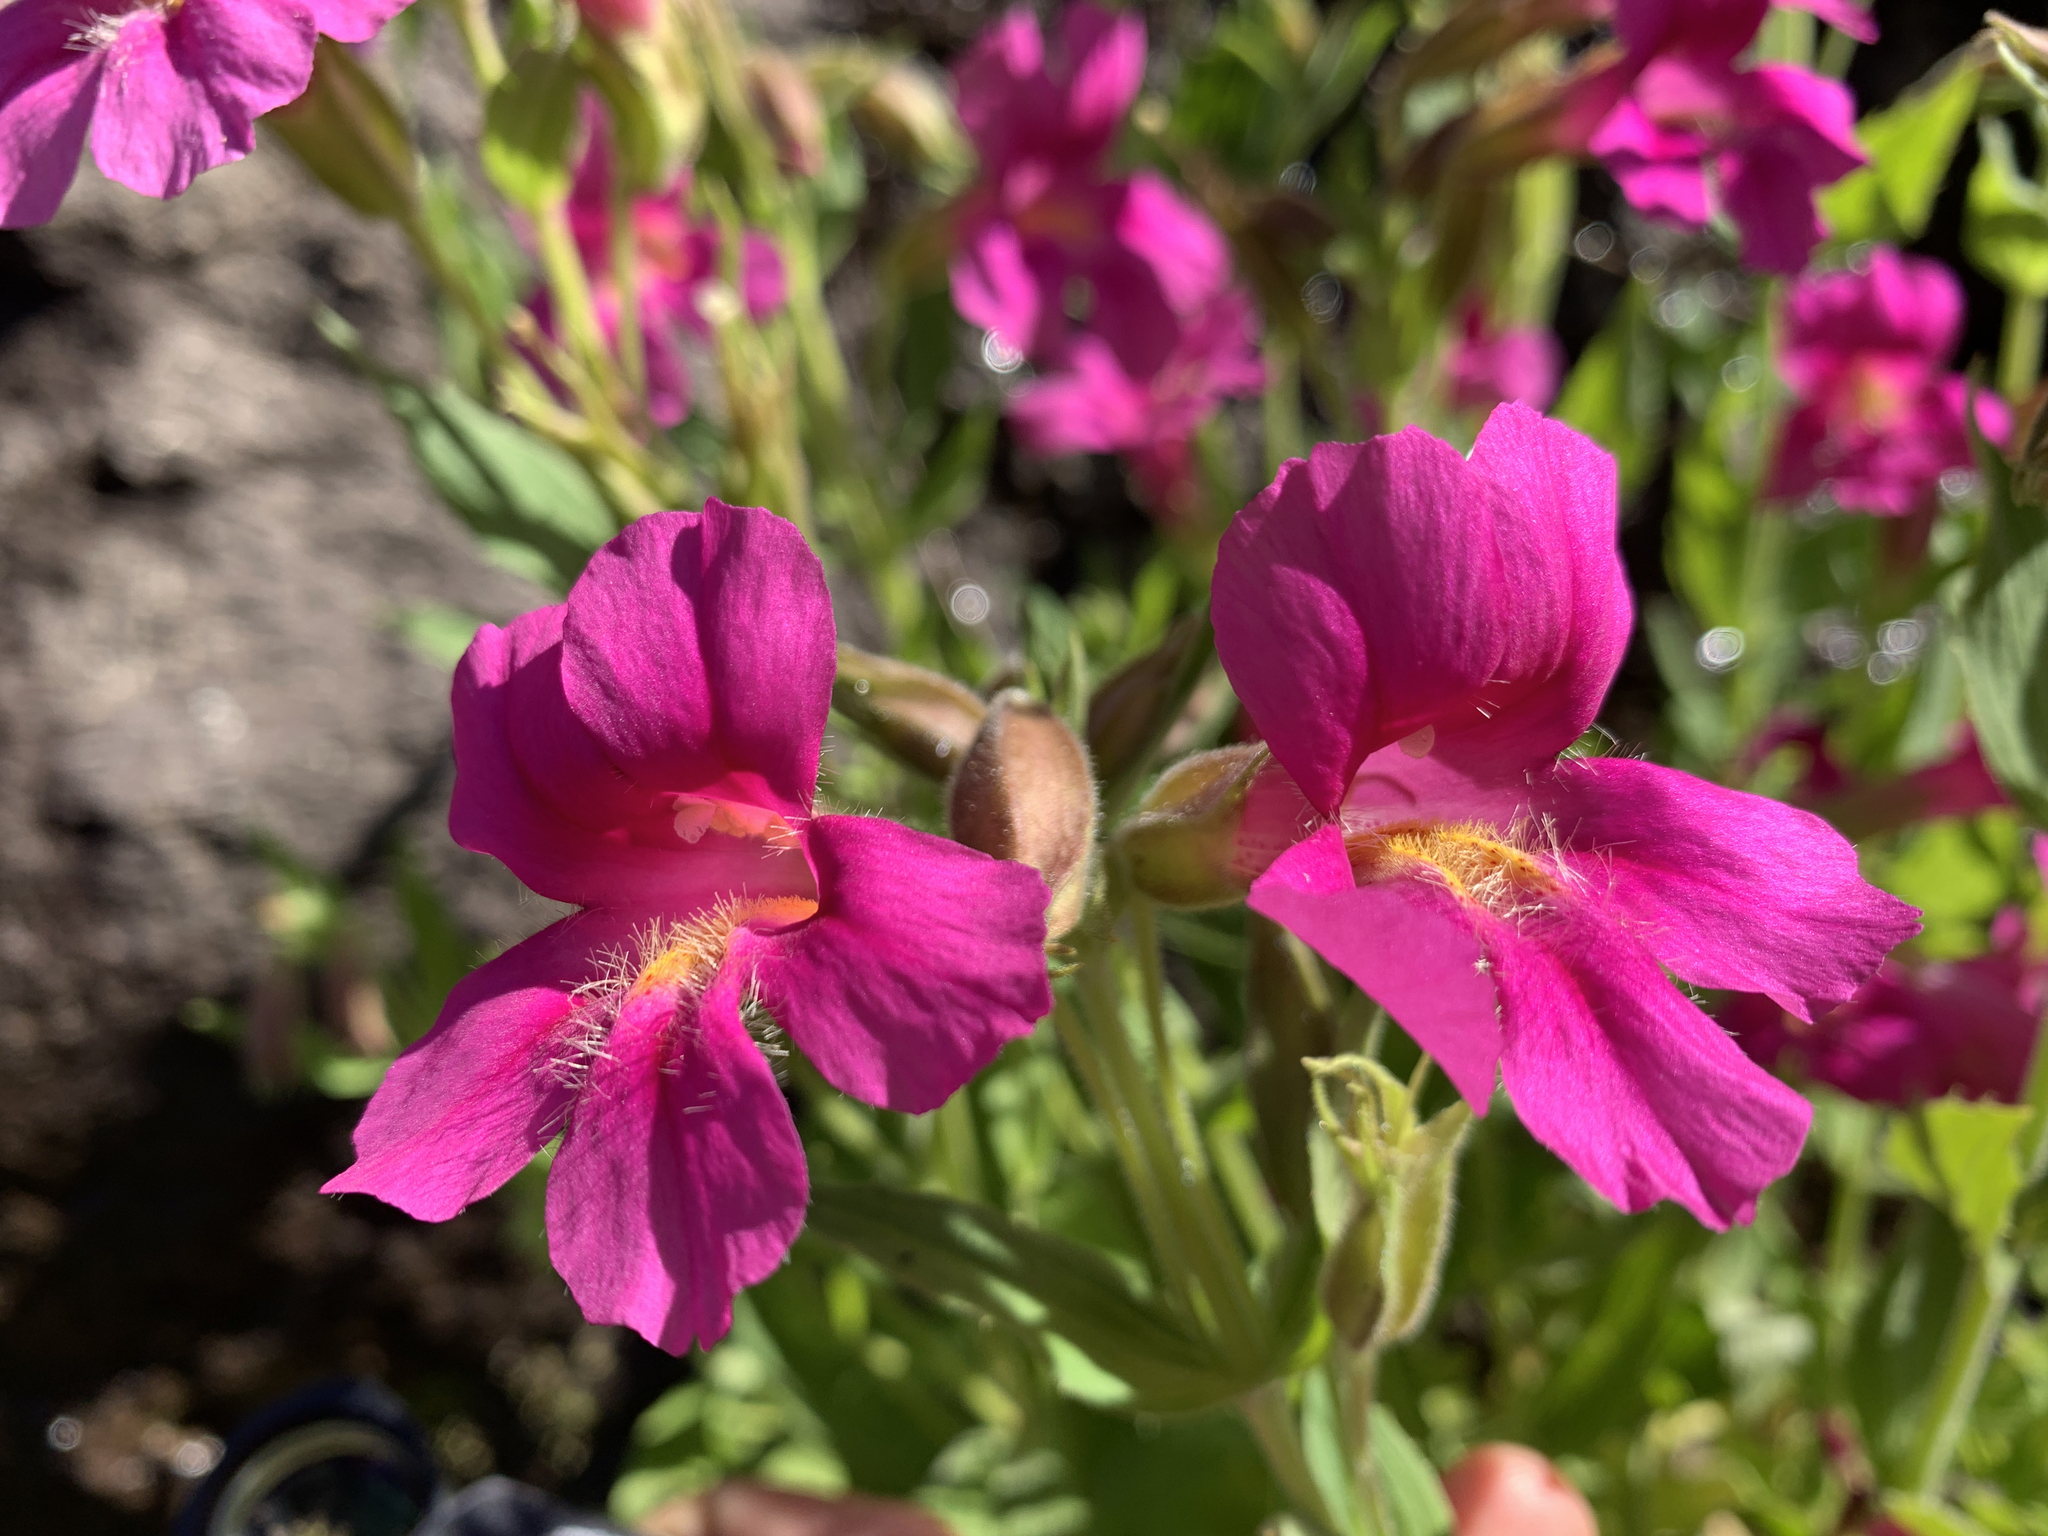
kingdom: Plantae
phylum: Tracheophyta
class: Magnoliopsida
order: Lamiales
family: Phrymaceae
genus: Erythranthe
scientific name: Erythranthe lewisii
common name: Lewis's monkey-flower
